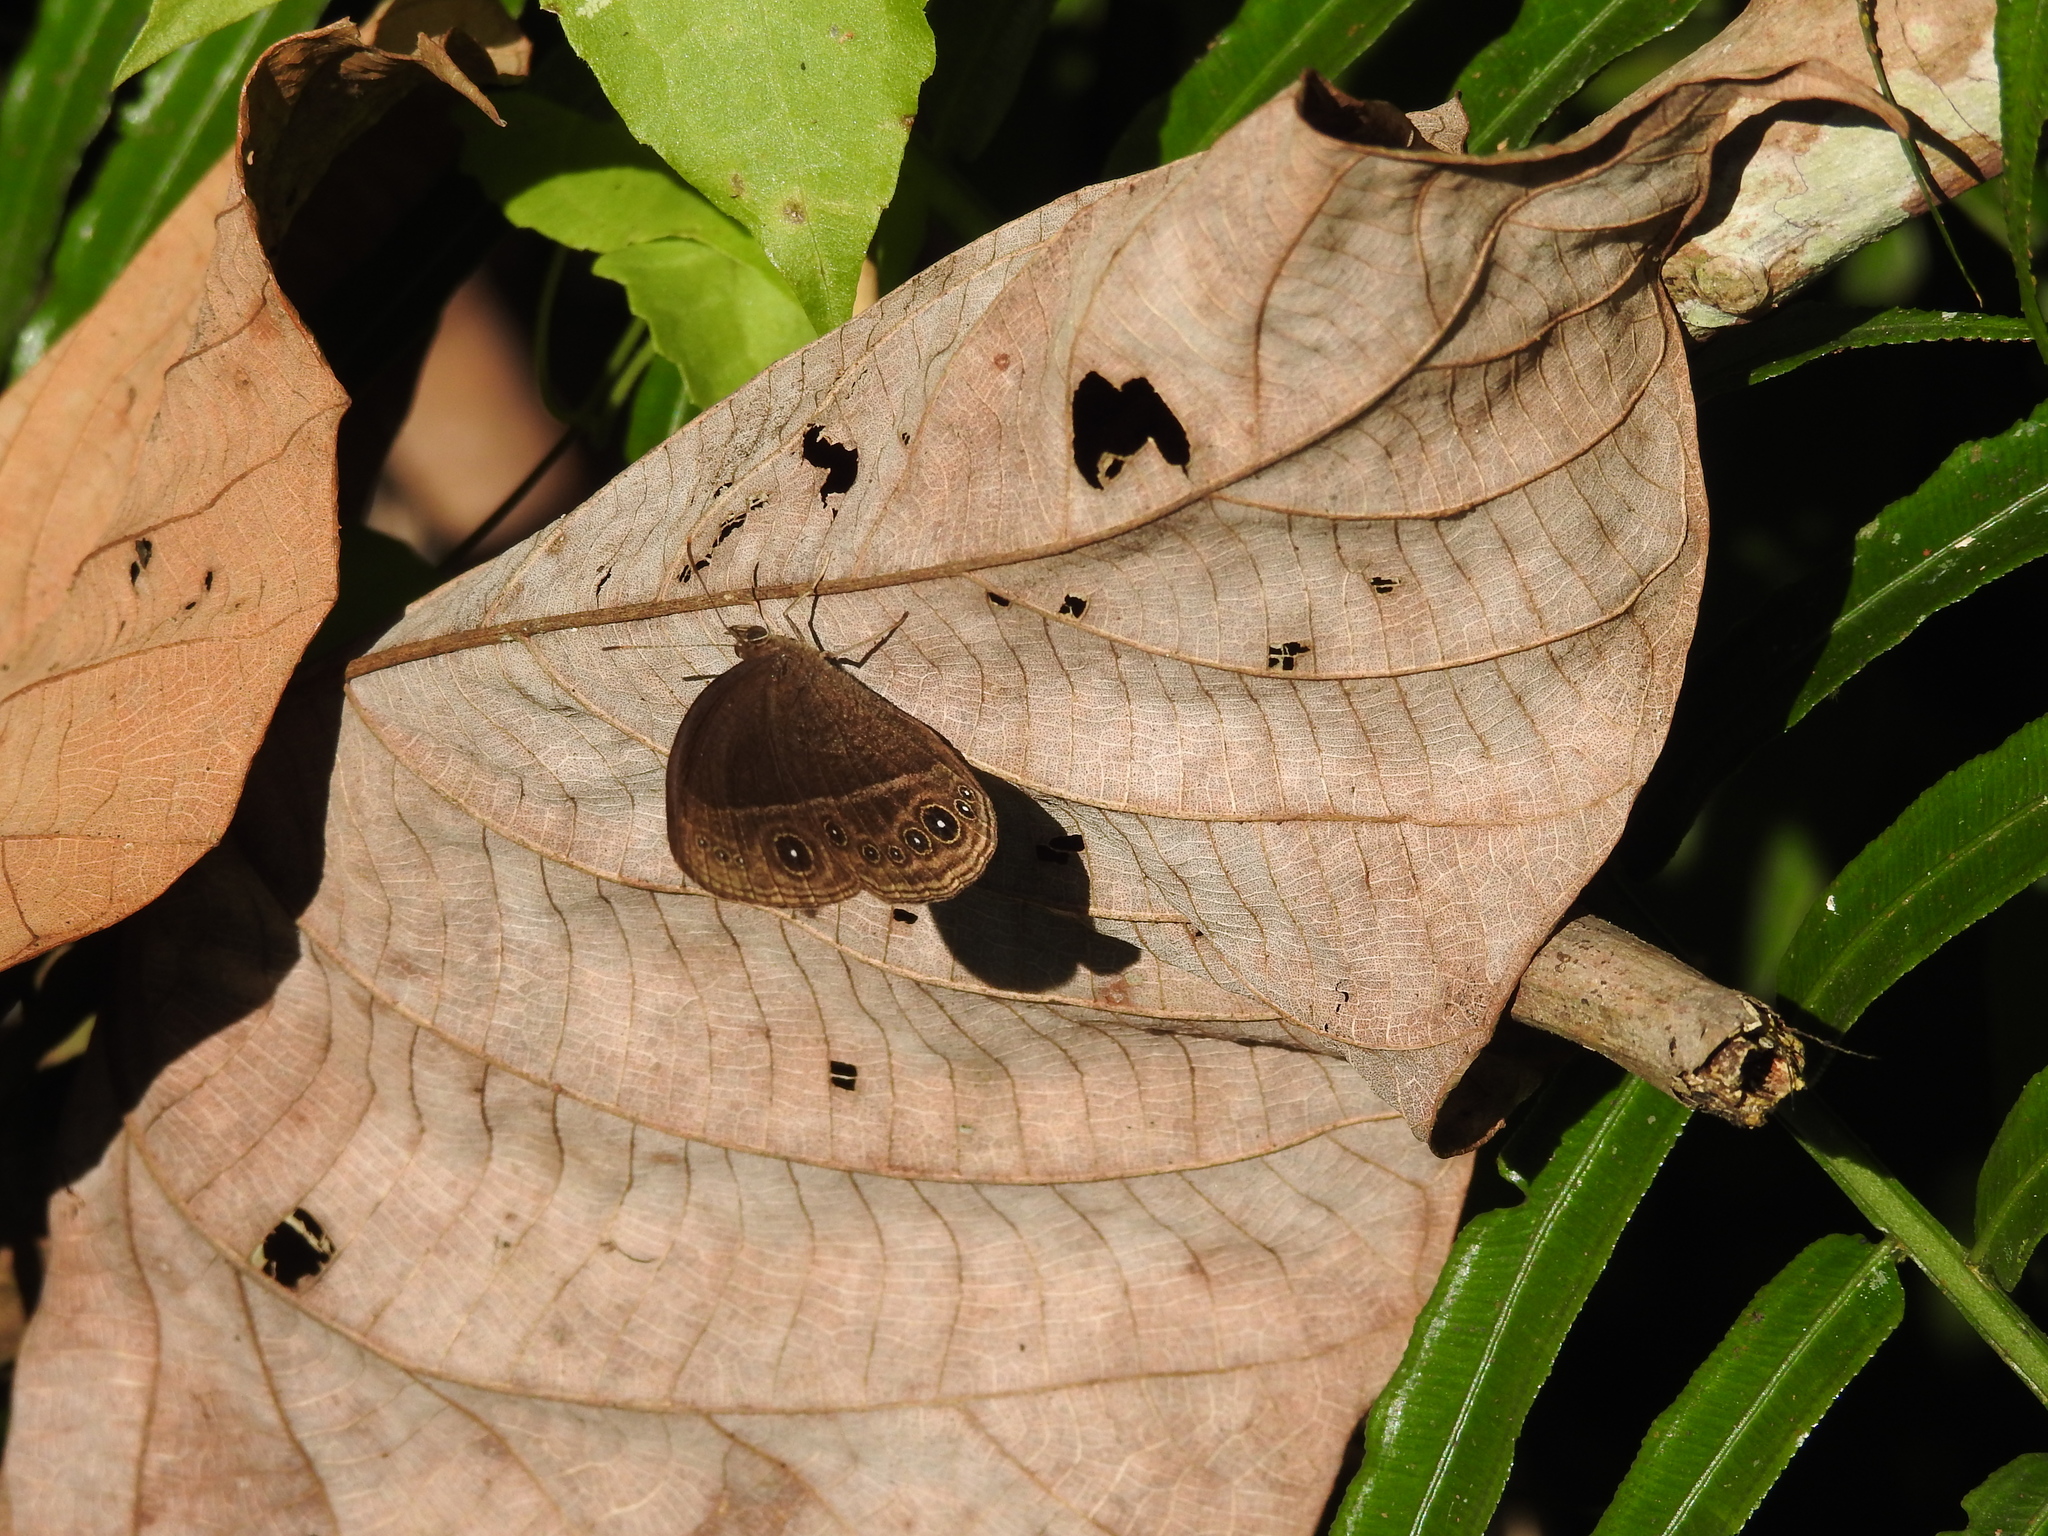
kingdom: Animalia
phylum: Arthropoda
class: Insecta
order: Lepidoptera
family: Nymphalidae
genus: Mycalesis
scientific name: Mycalesis Telinga malsara
